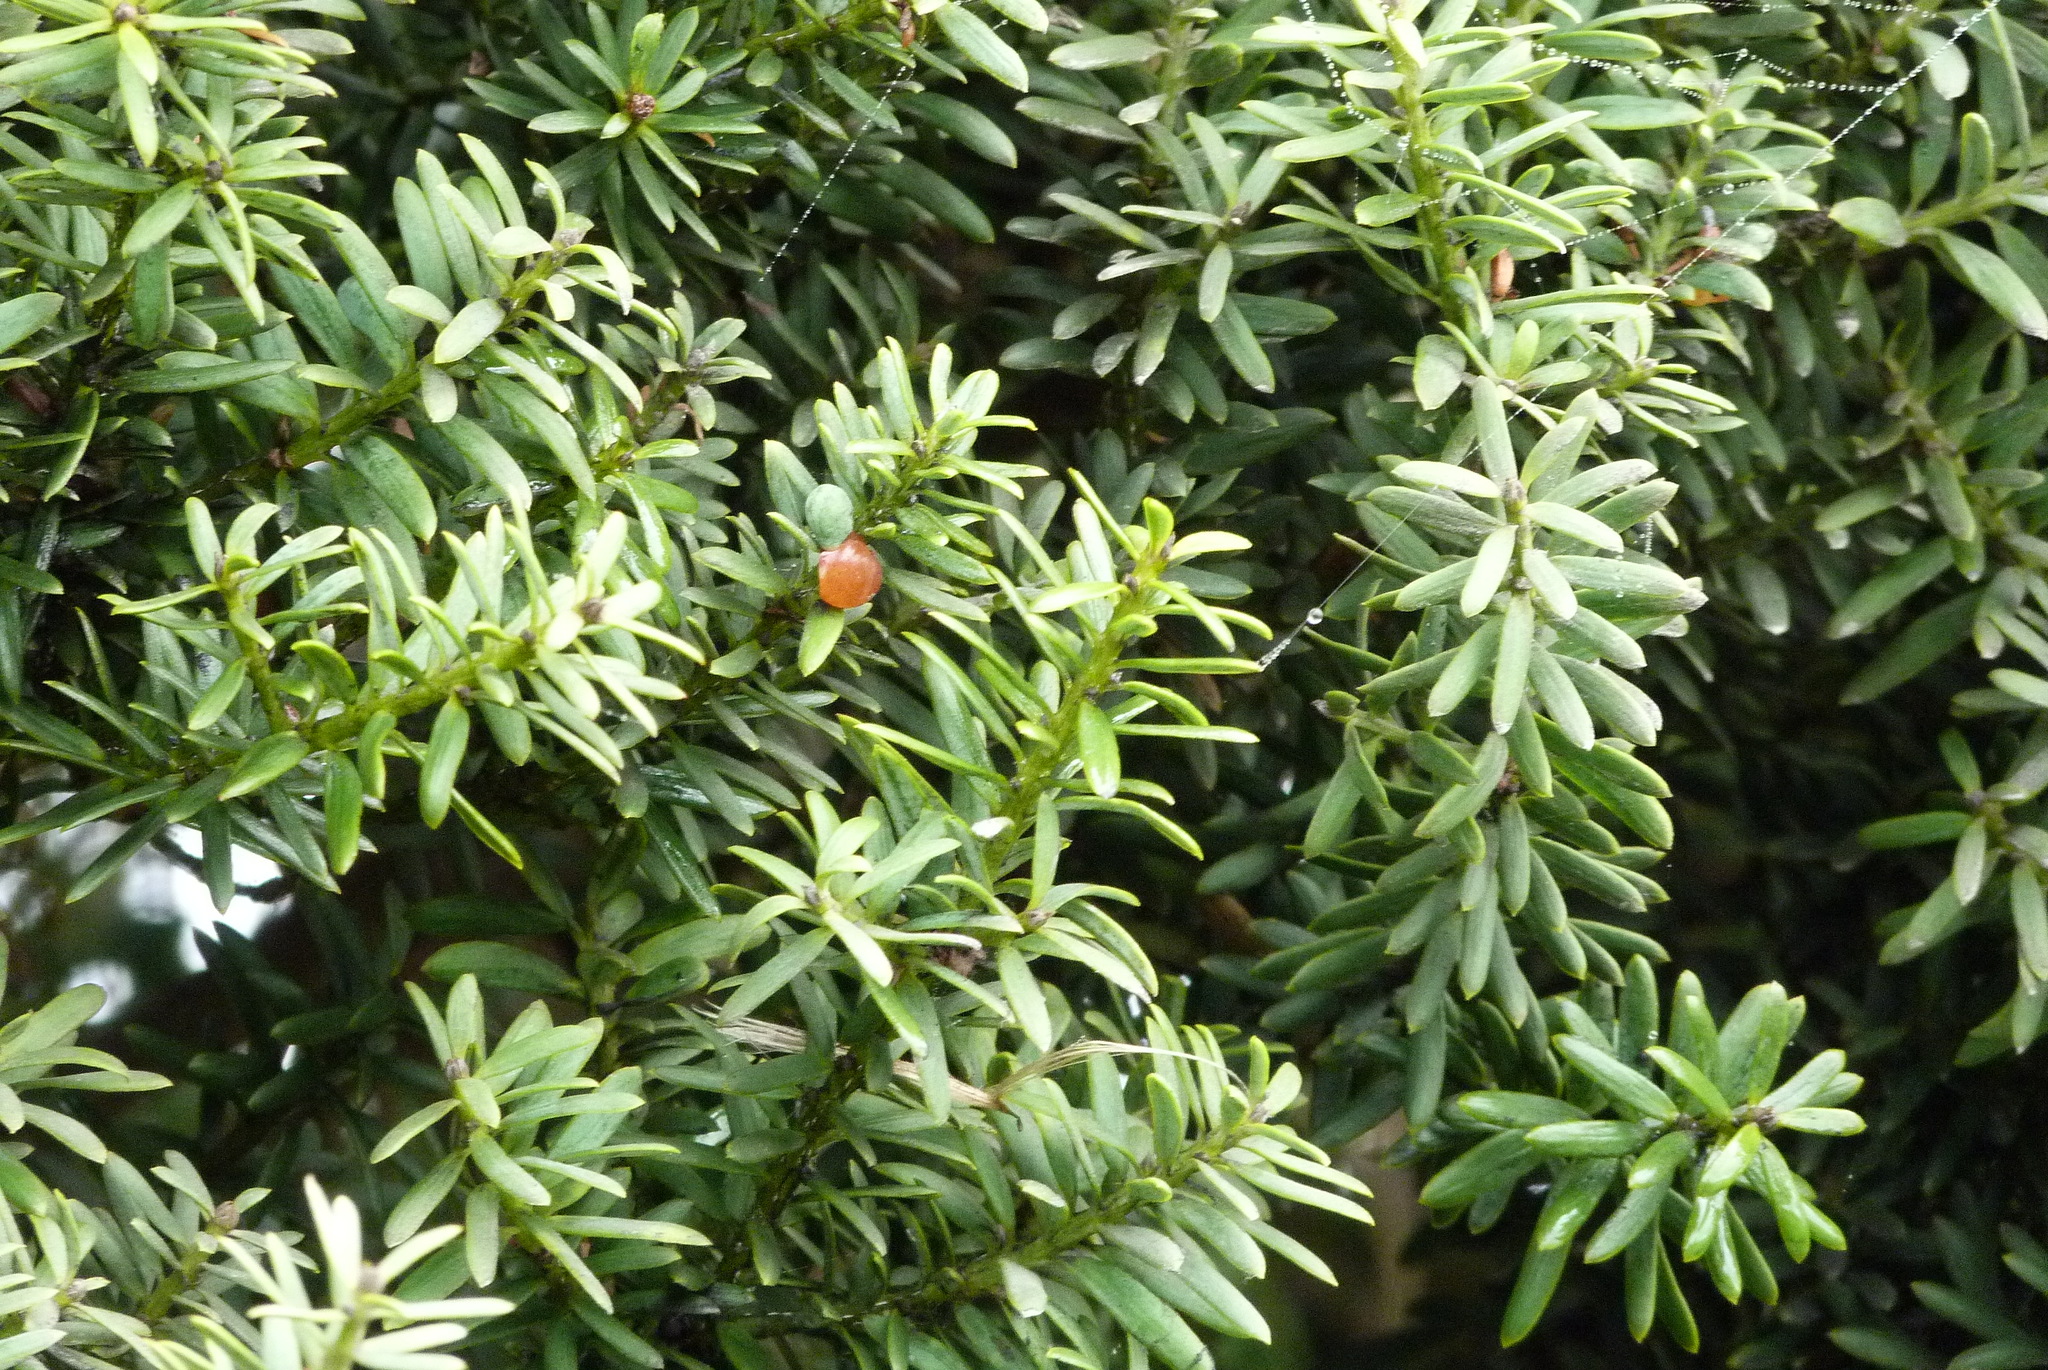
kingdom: Plantae
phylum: Tracheophyta
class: Pinopsida
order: Pinales
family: Podocarpaceae
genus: Podocarpus
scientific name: Podocarpus totara
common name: Totara
